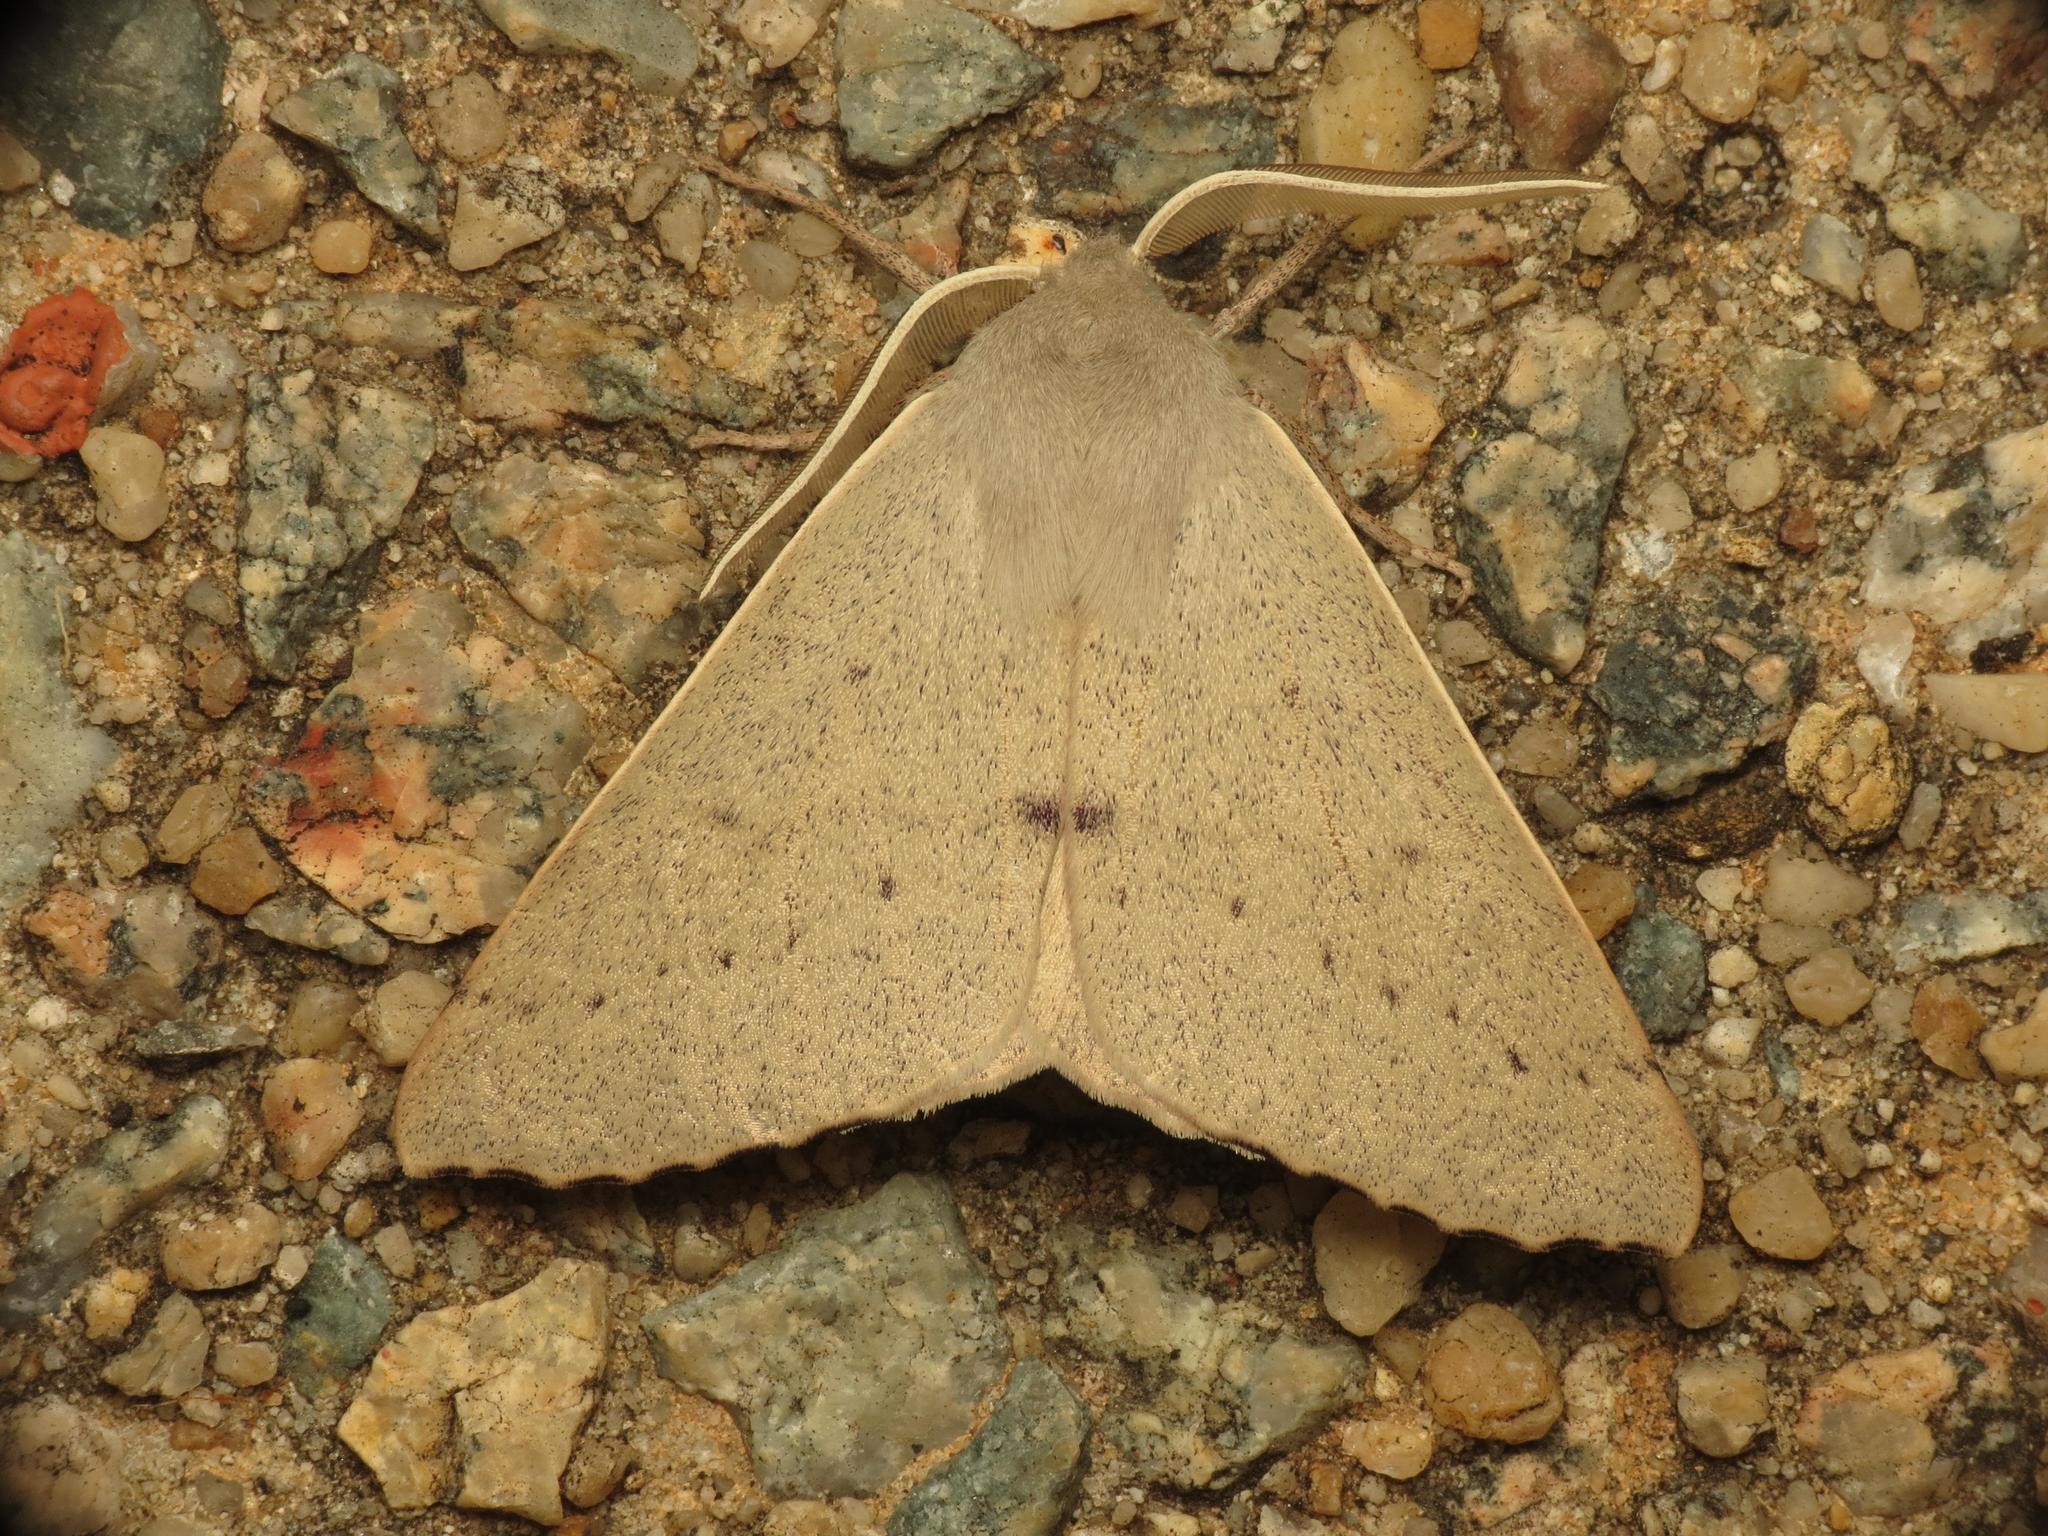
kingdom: Animalia
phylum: Arthropoda
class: Insecta
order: Lepidoptera
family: Geometridae
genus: Arhodia
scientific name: Arhodia lasiocamparia
